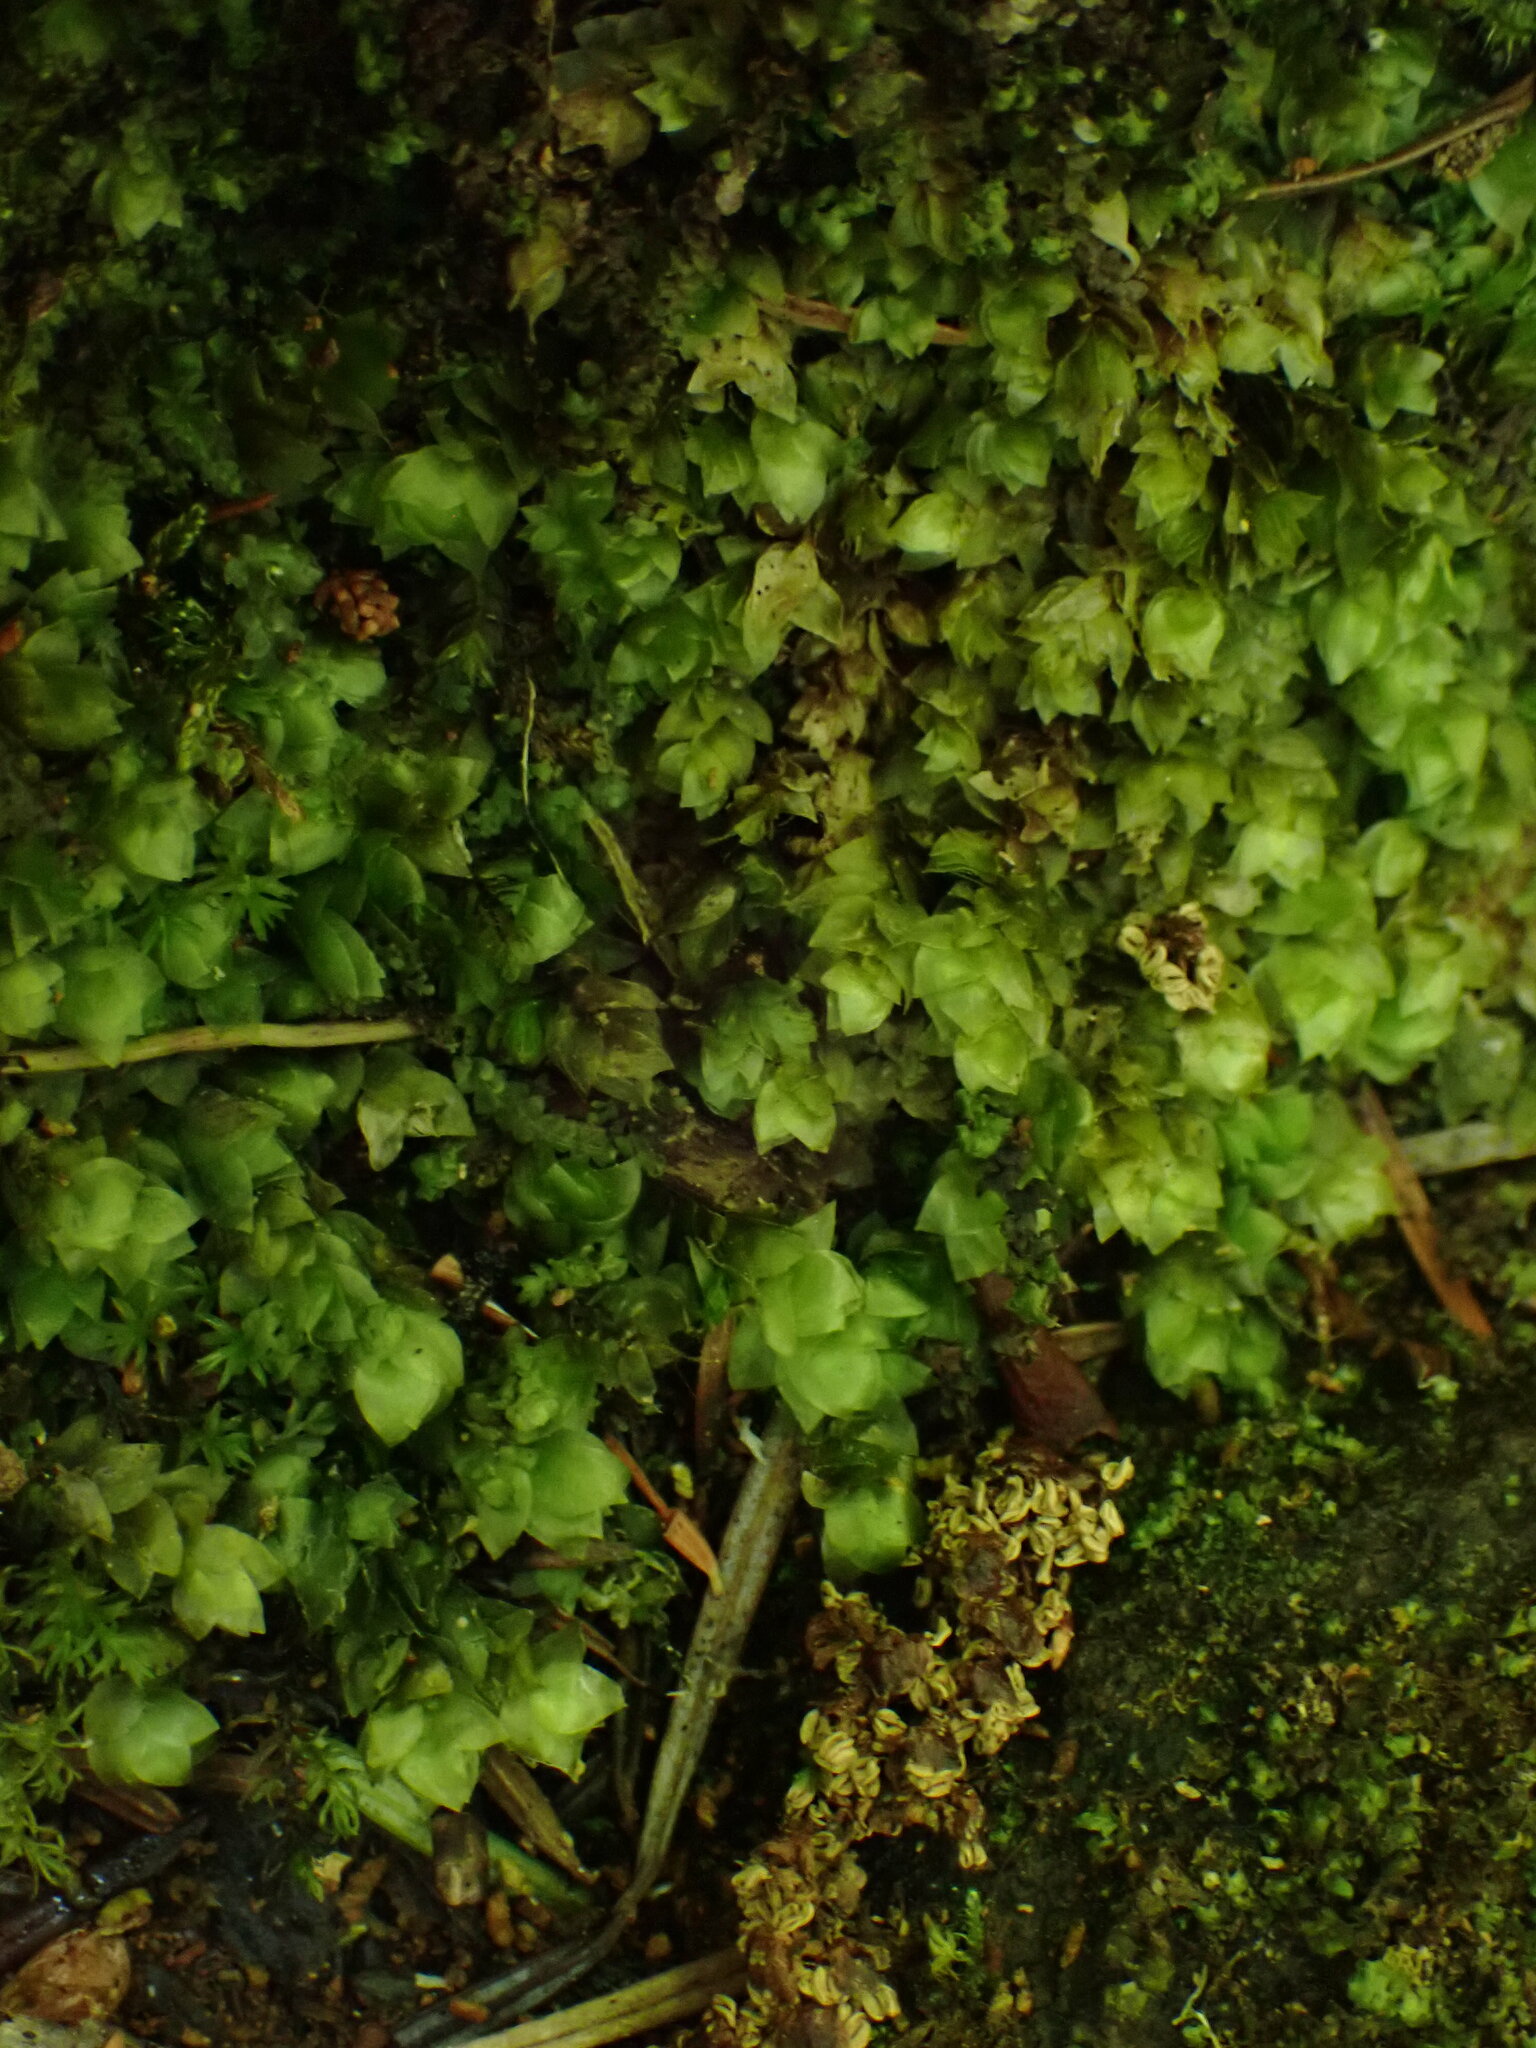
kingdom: Plantae
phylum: Bryophyta
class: Bryopsida
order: Hookeriales
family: Hookeriaceae
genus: Hookeria
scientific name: Hookeria lucens
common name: Shining hookeria
